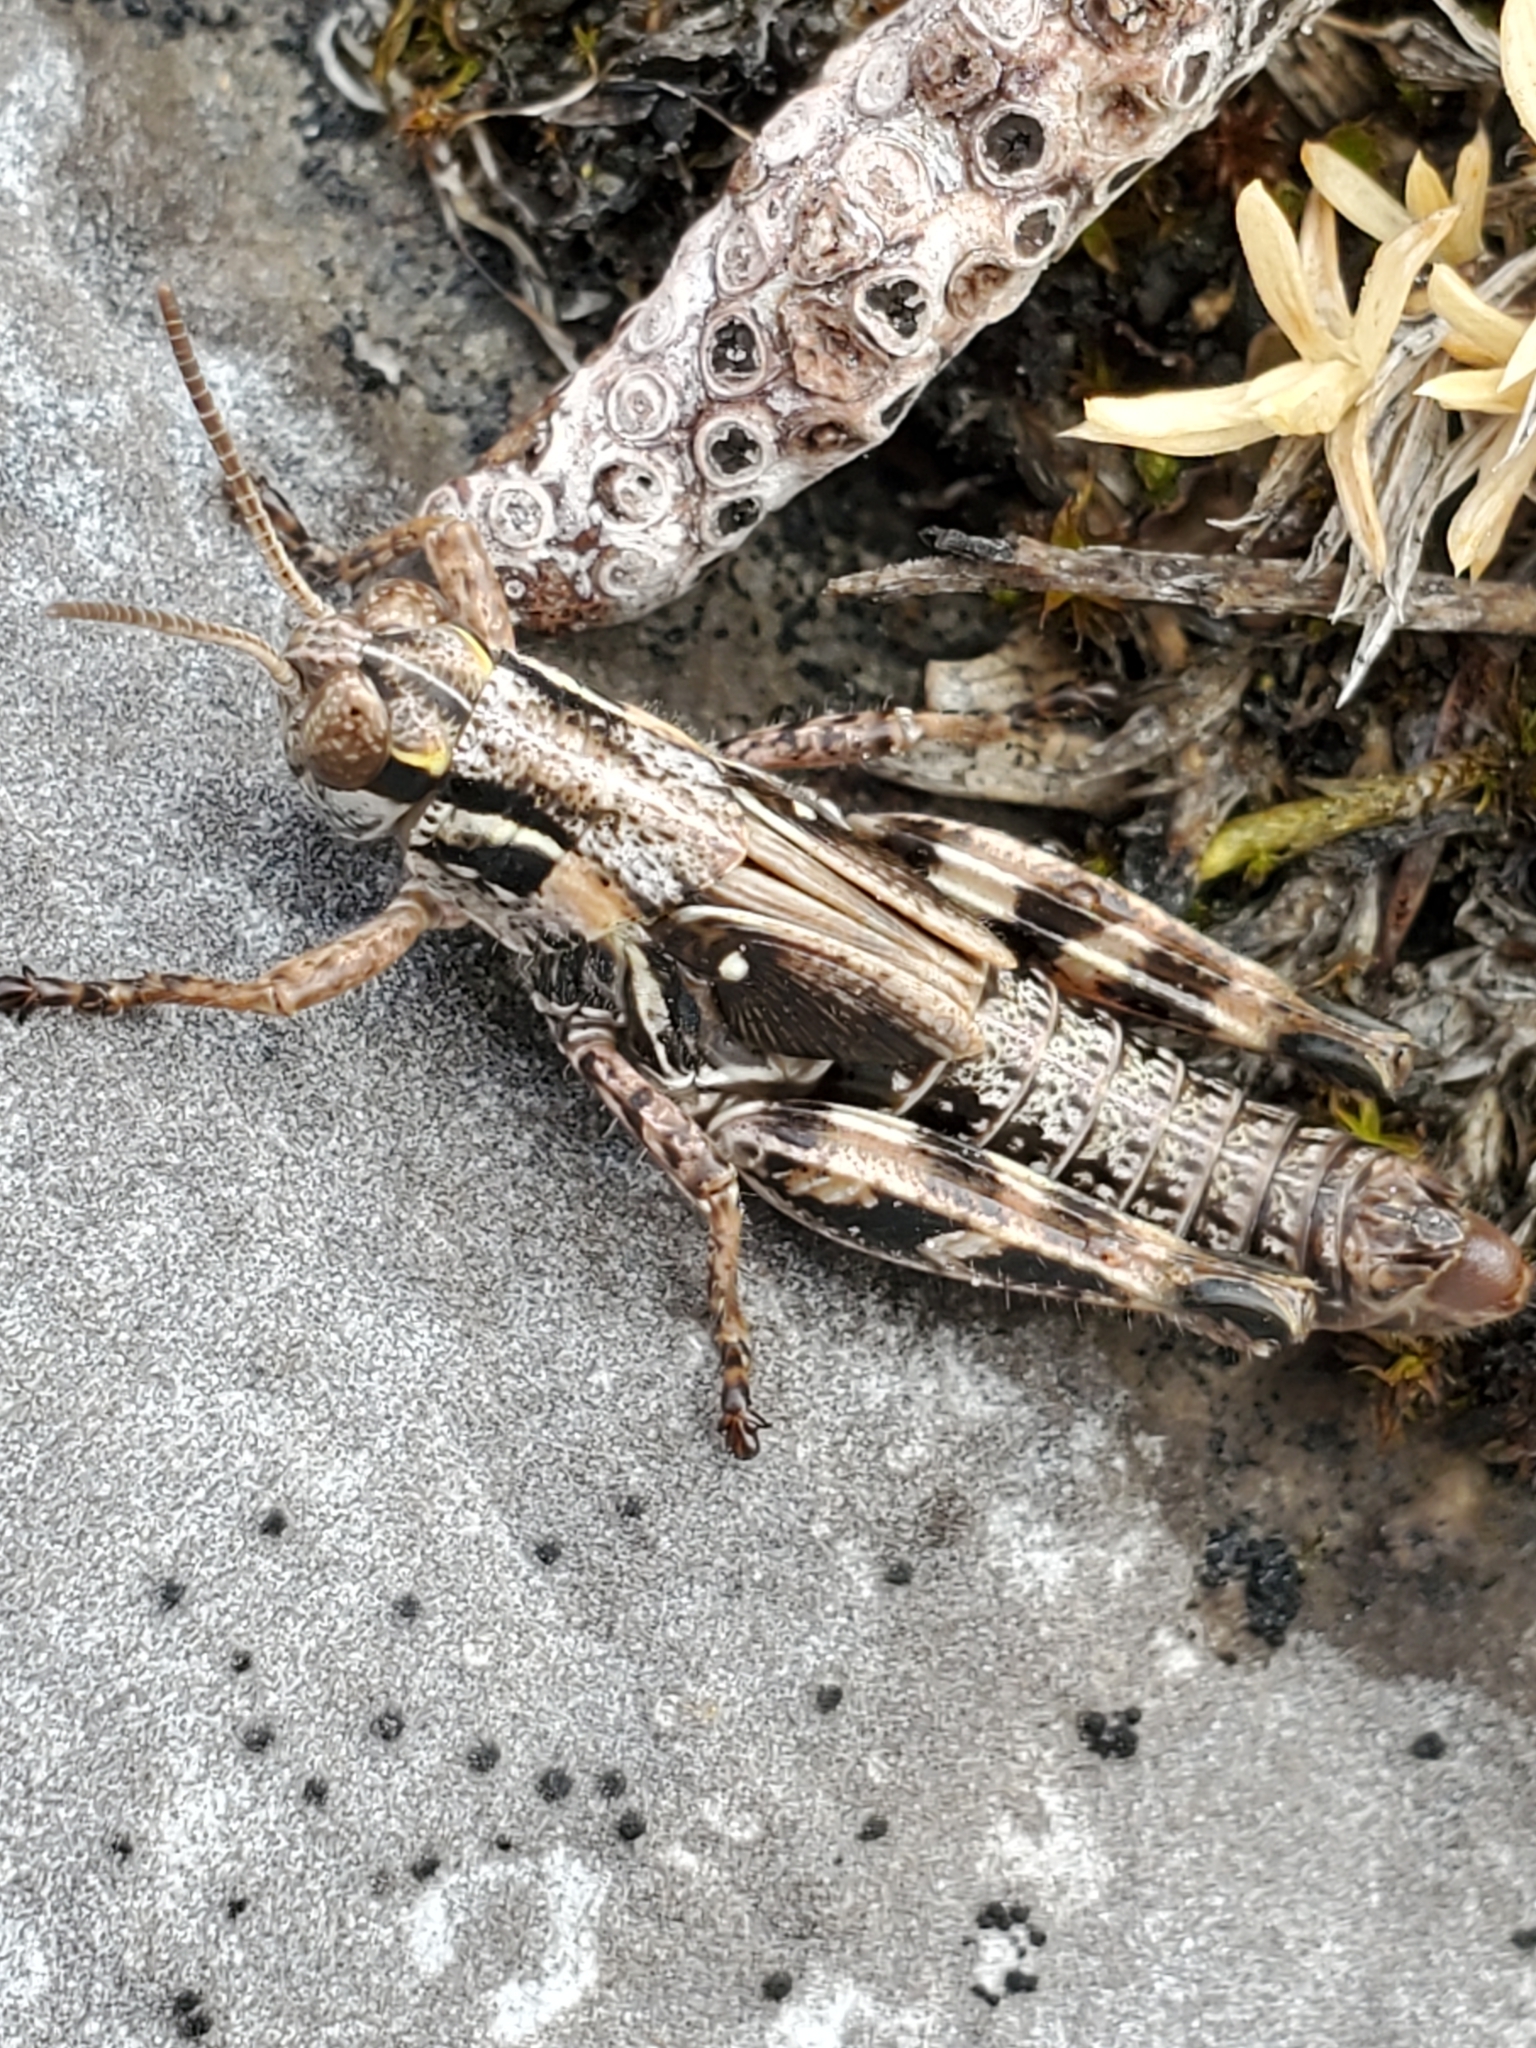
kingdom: Animalia
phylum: Arthropoda
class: Insecta
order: Orthoptera
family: Acrididae
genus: Melanoplus
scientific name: Melanoplus sanguinipes
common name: Migratory grasshopper
